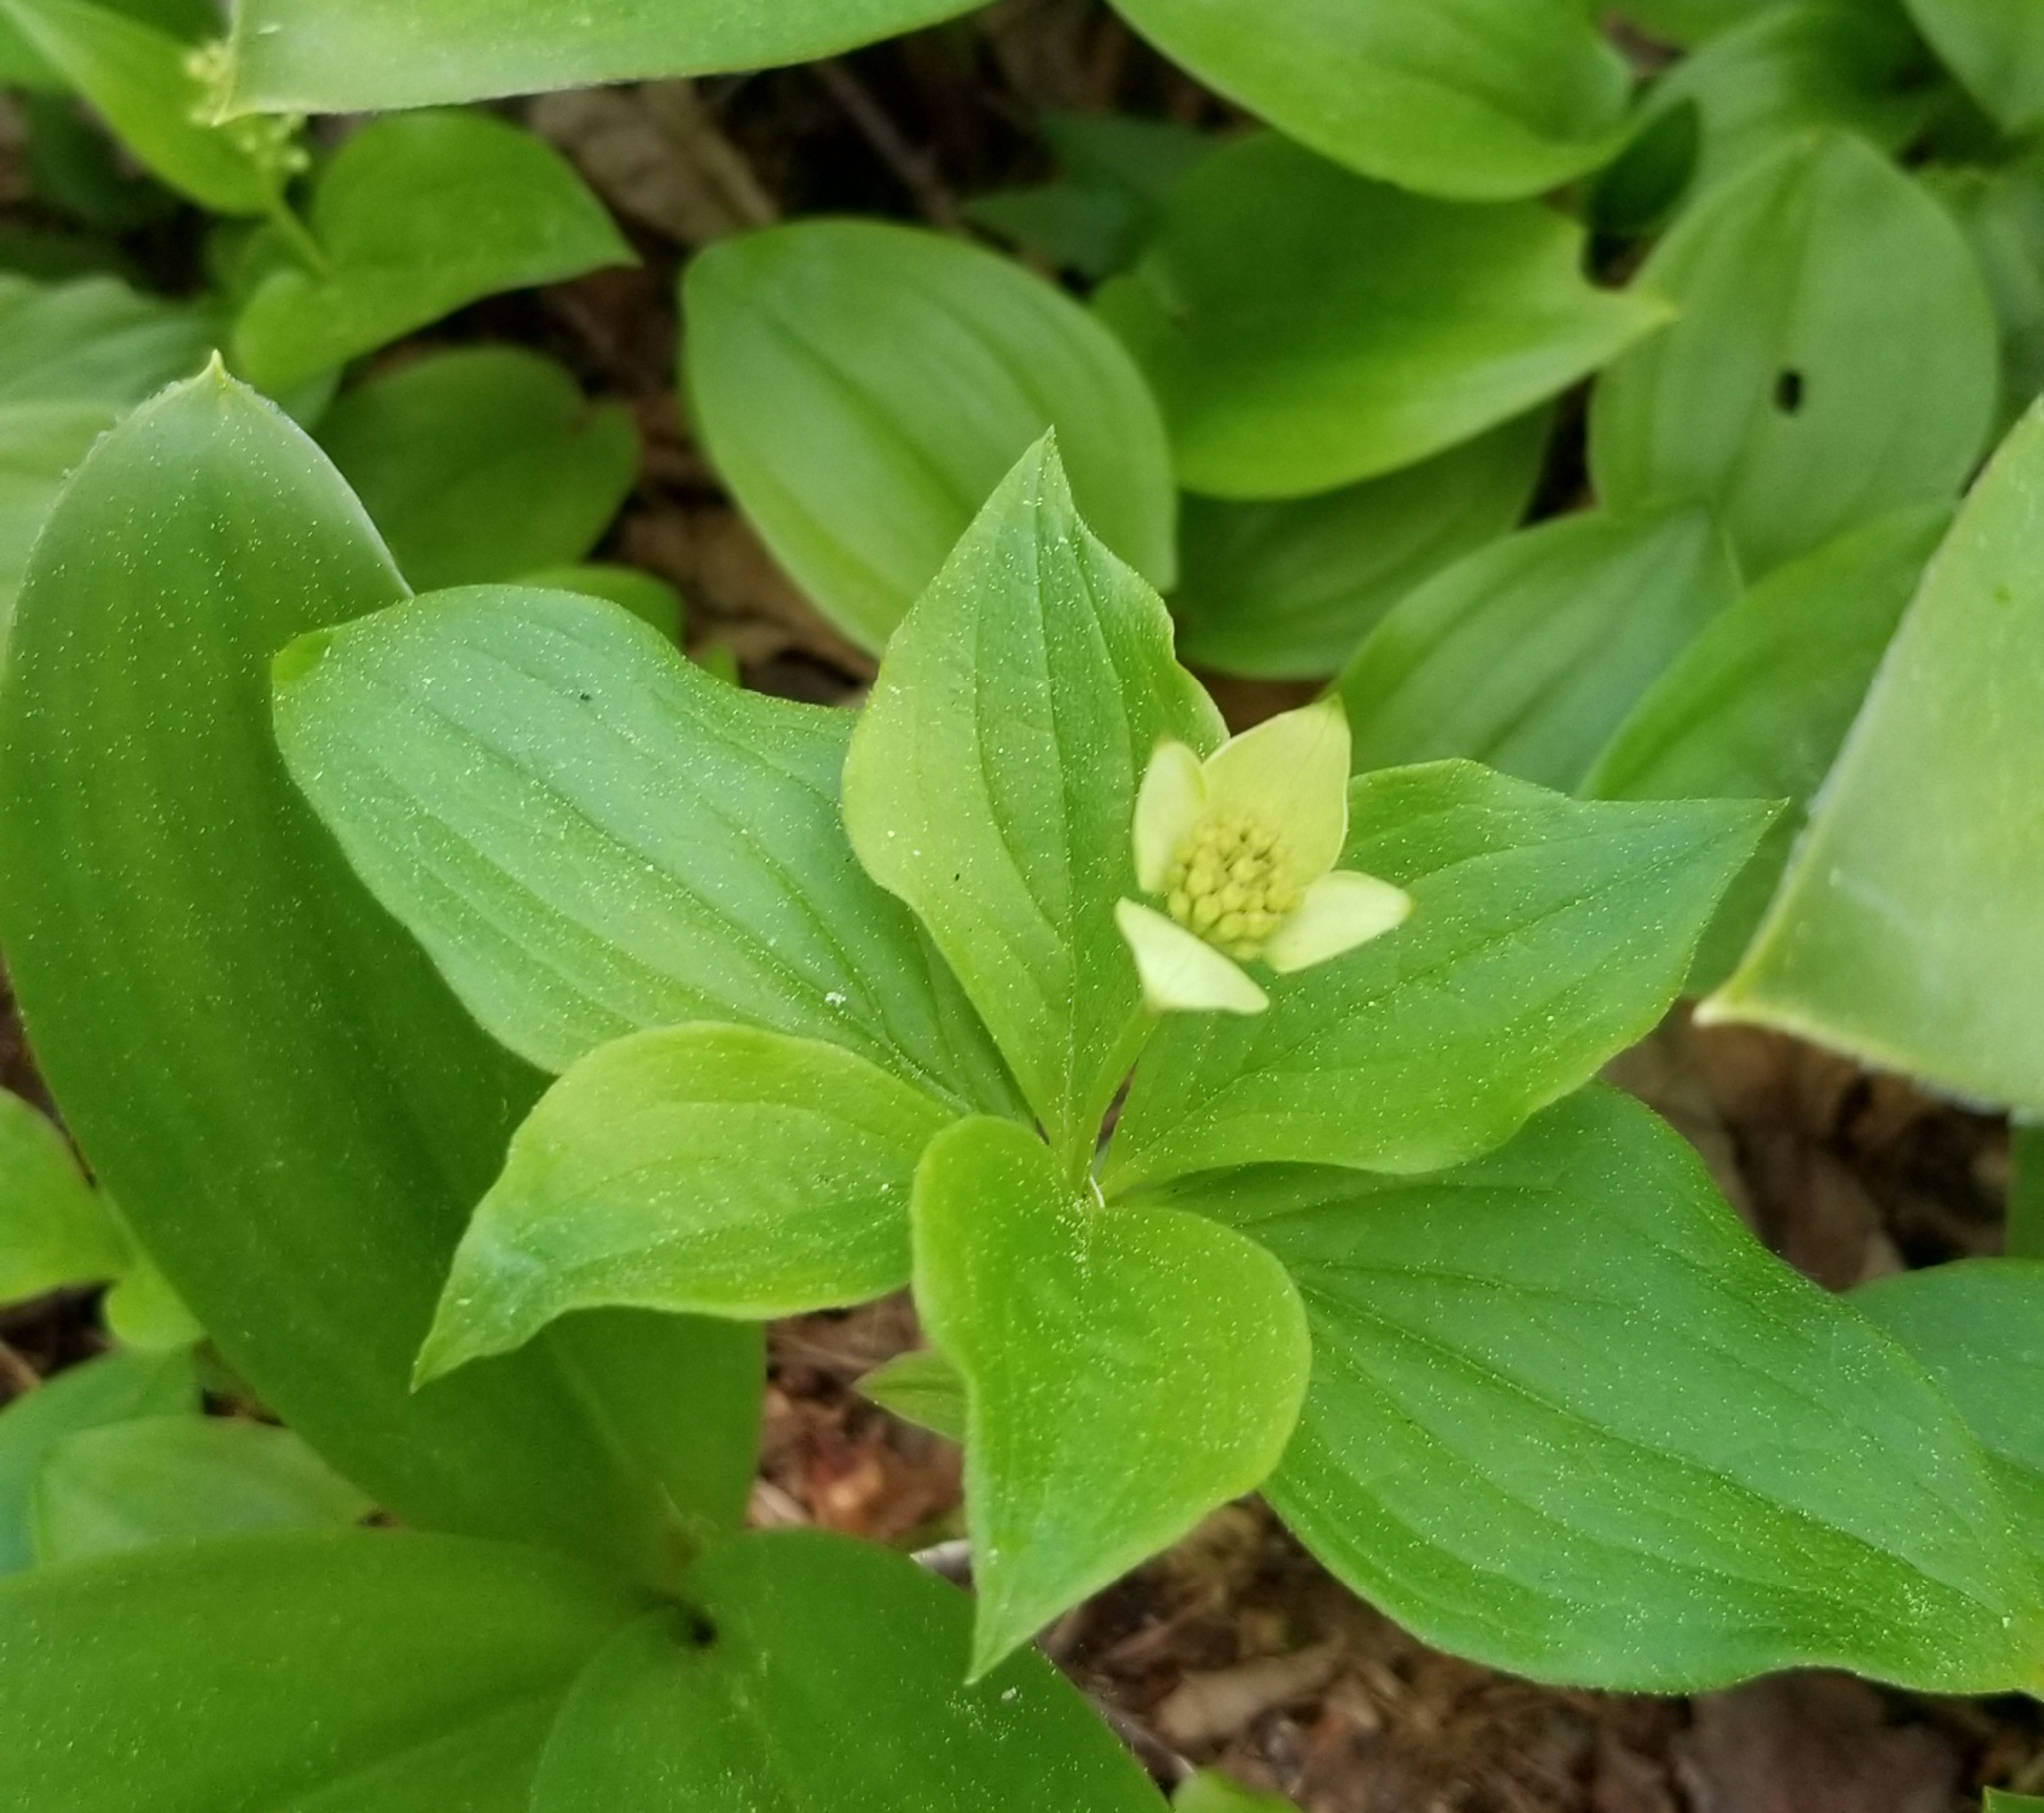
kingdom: Plantae
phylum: Tracheophyta
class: Magnoliopsida
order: Cornales
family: Cornaceae
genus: Cornus
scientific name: Cornus canadensis
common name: Creeping dogwood
